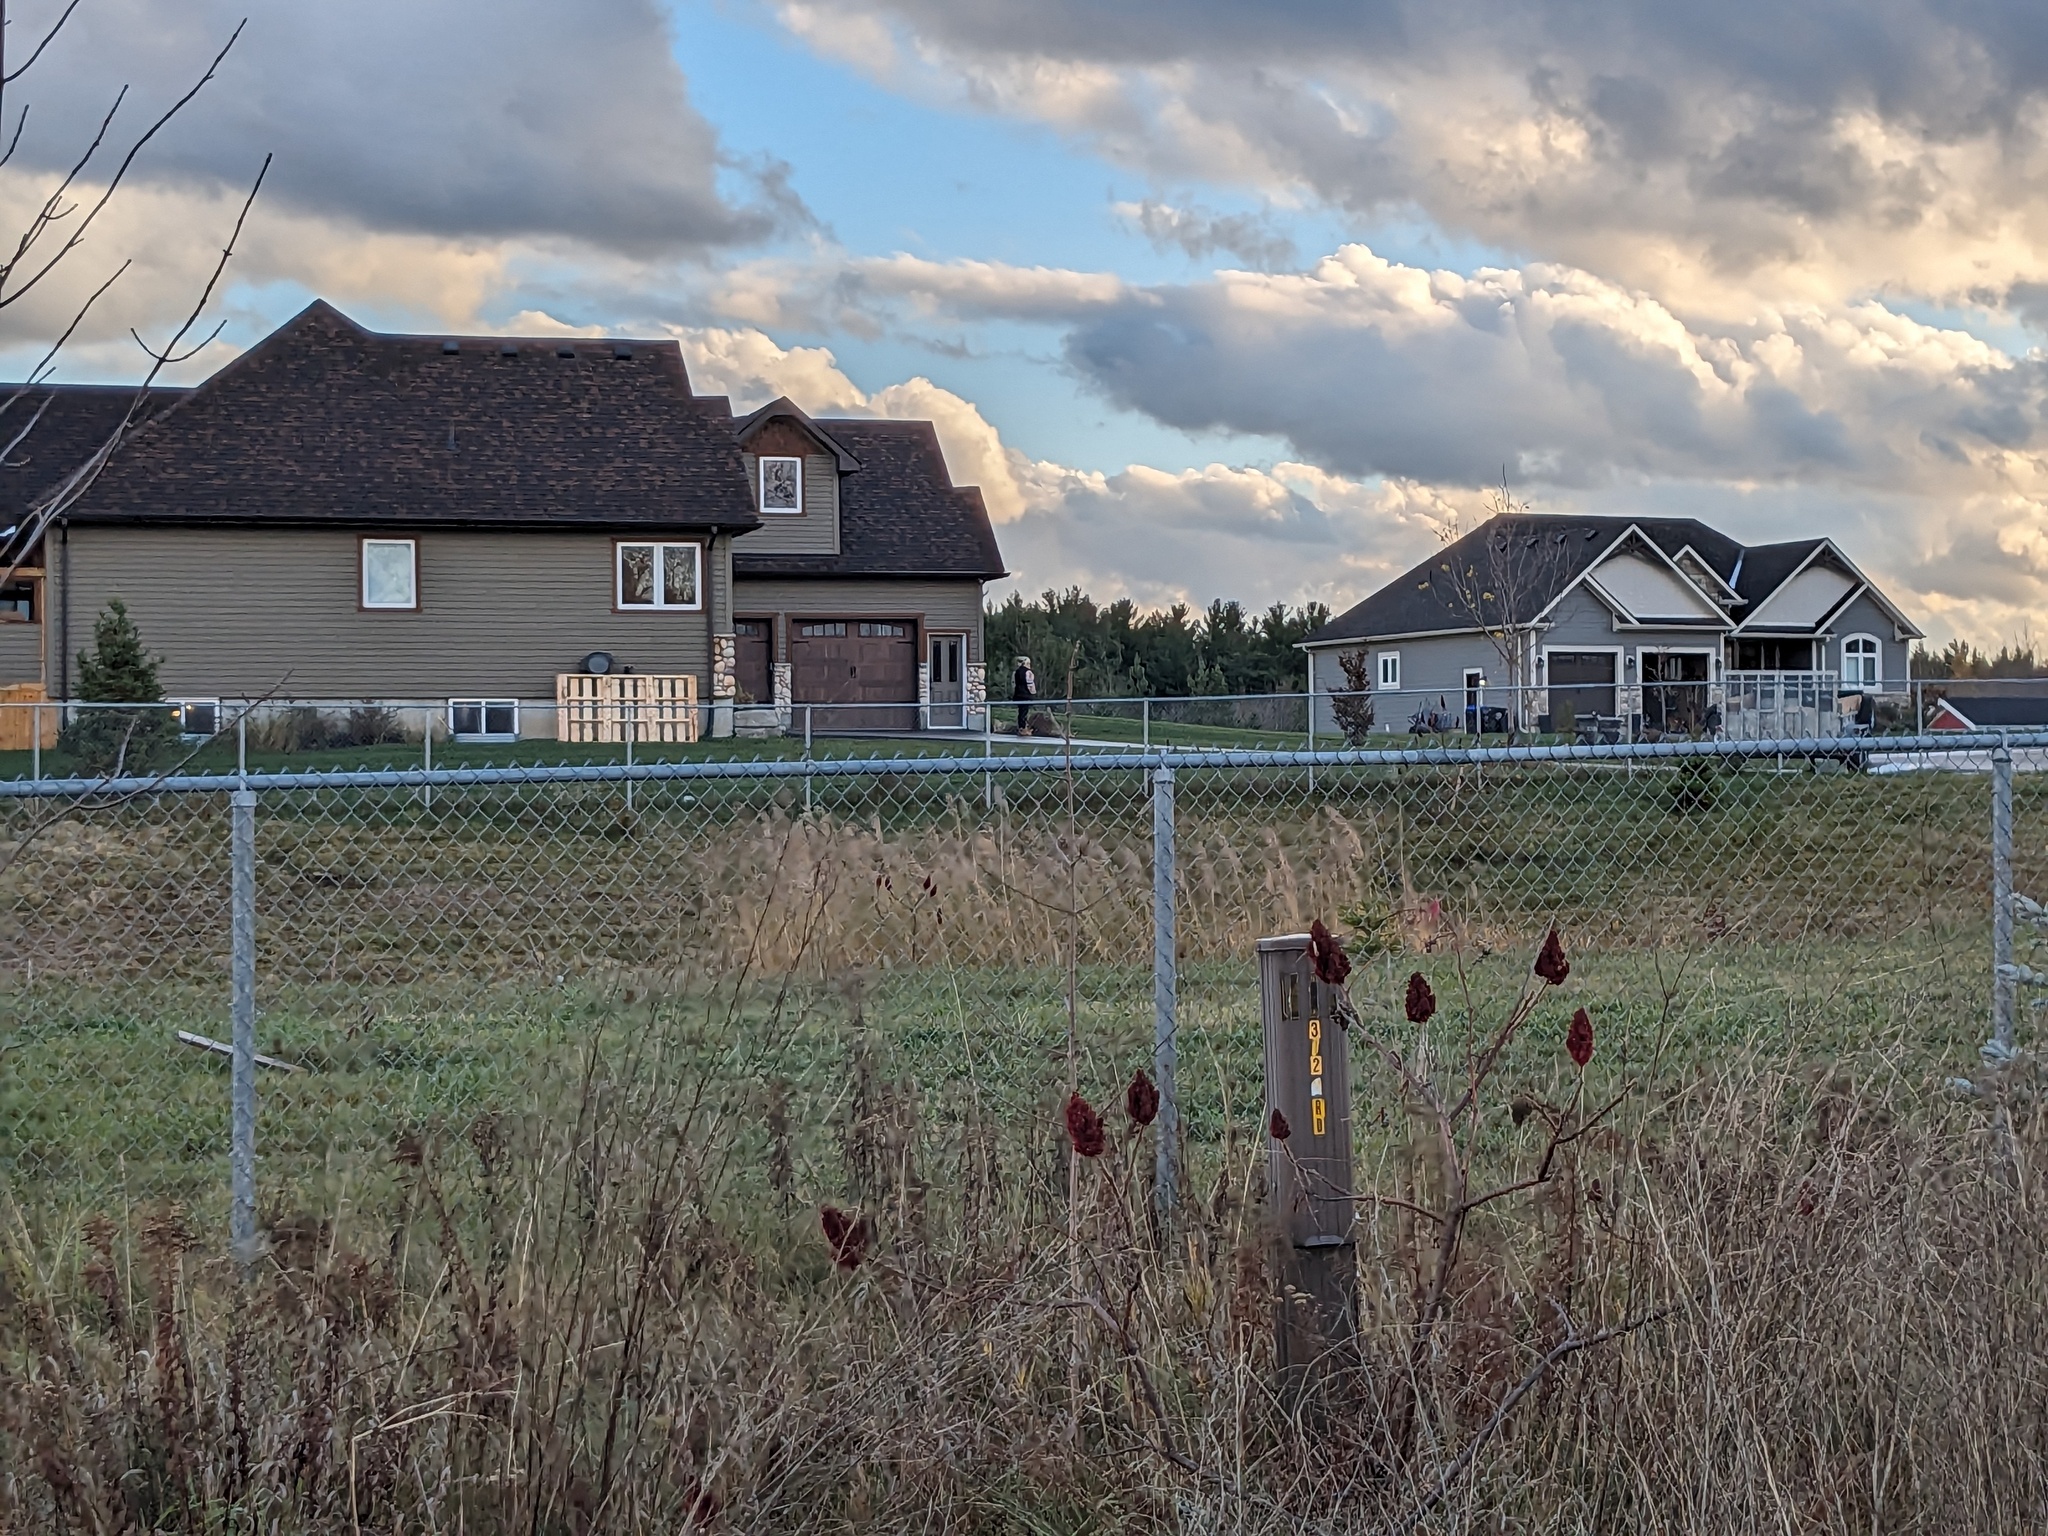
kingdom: Plantae
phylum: Tracheophyta
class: Liliopsida
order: Poales
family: Poaceae
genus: Phragmites
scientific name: Phragmites australis
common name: Common reed
